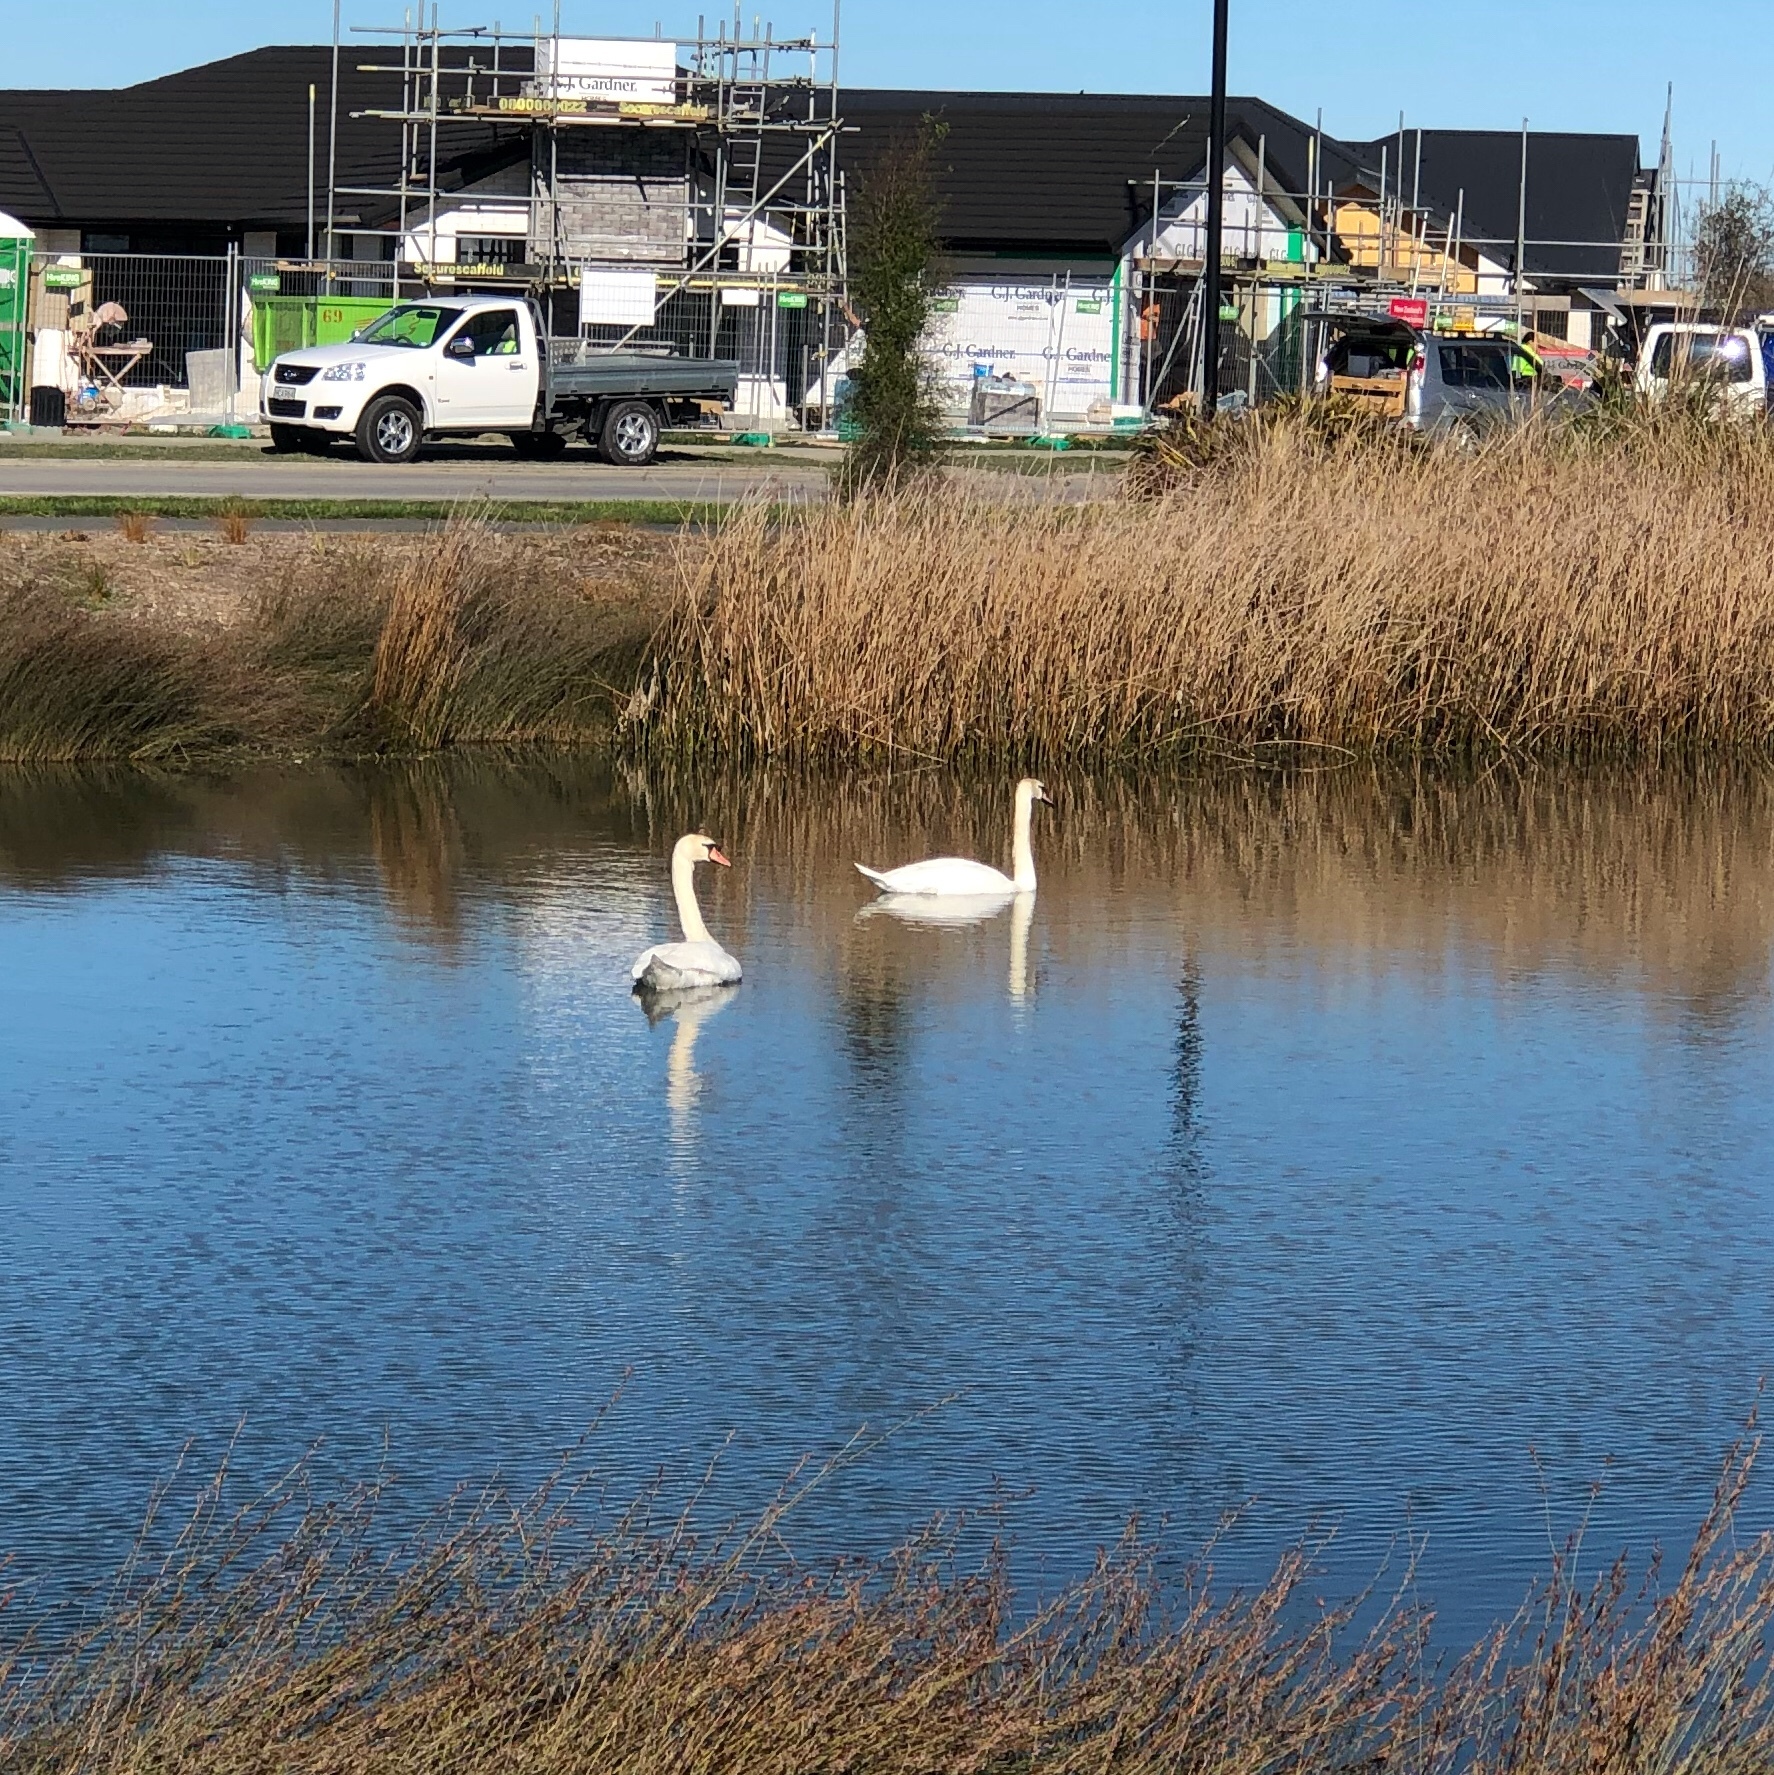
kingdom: Animalia
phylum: Chordata
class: Aves
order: Anseriformes
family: Anatidae
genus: Cygnus
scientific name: Cygnus olor
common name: Mute swan
